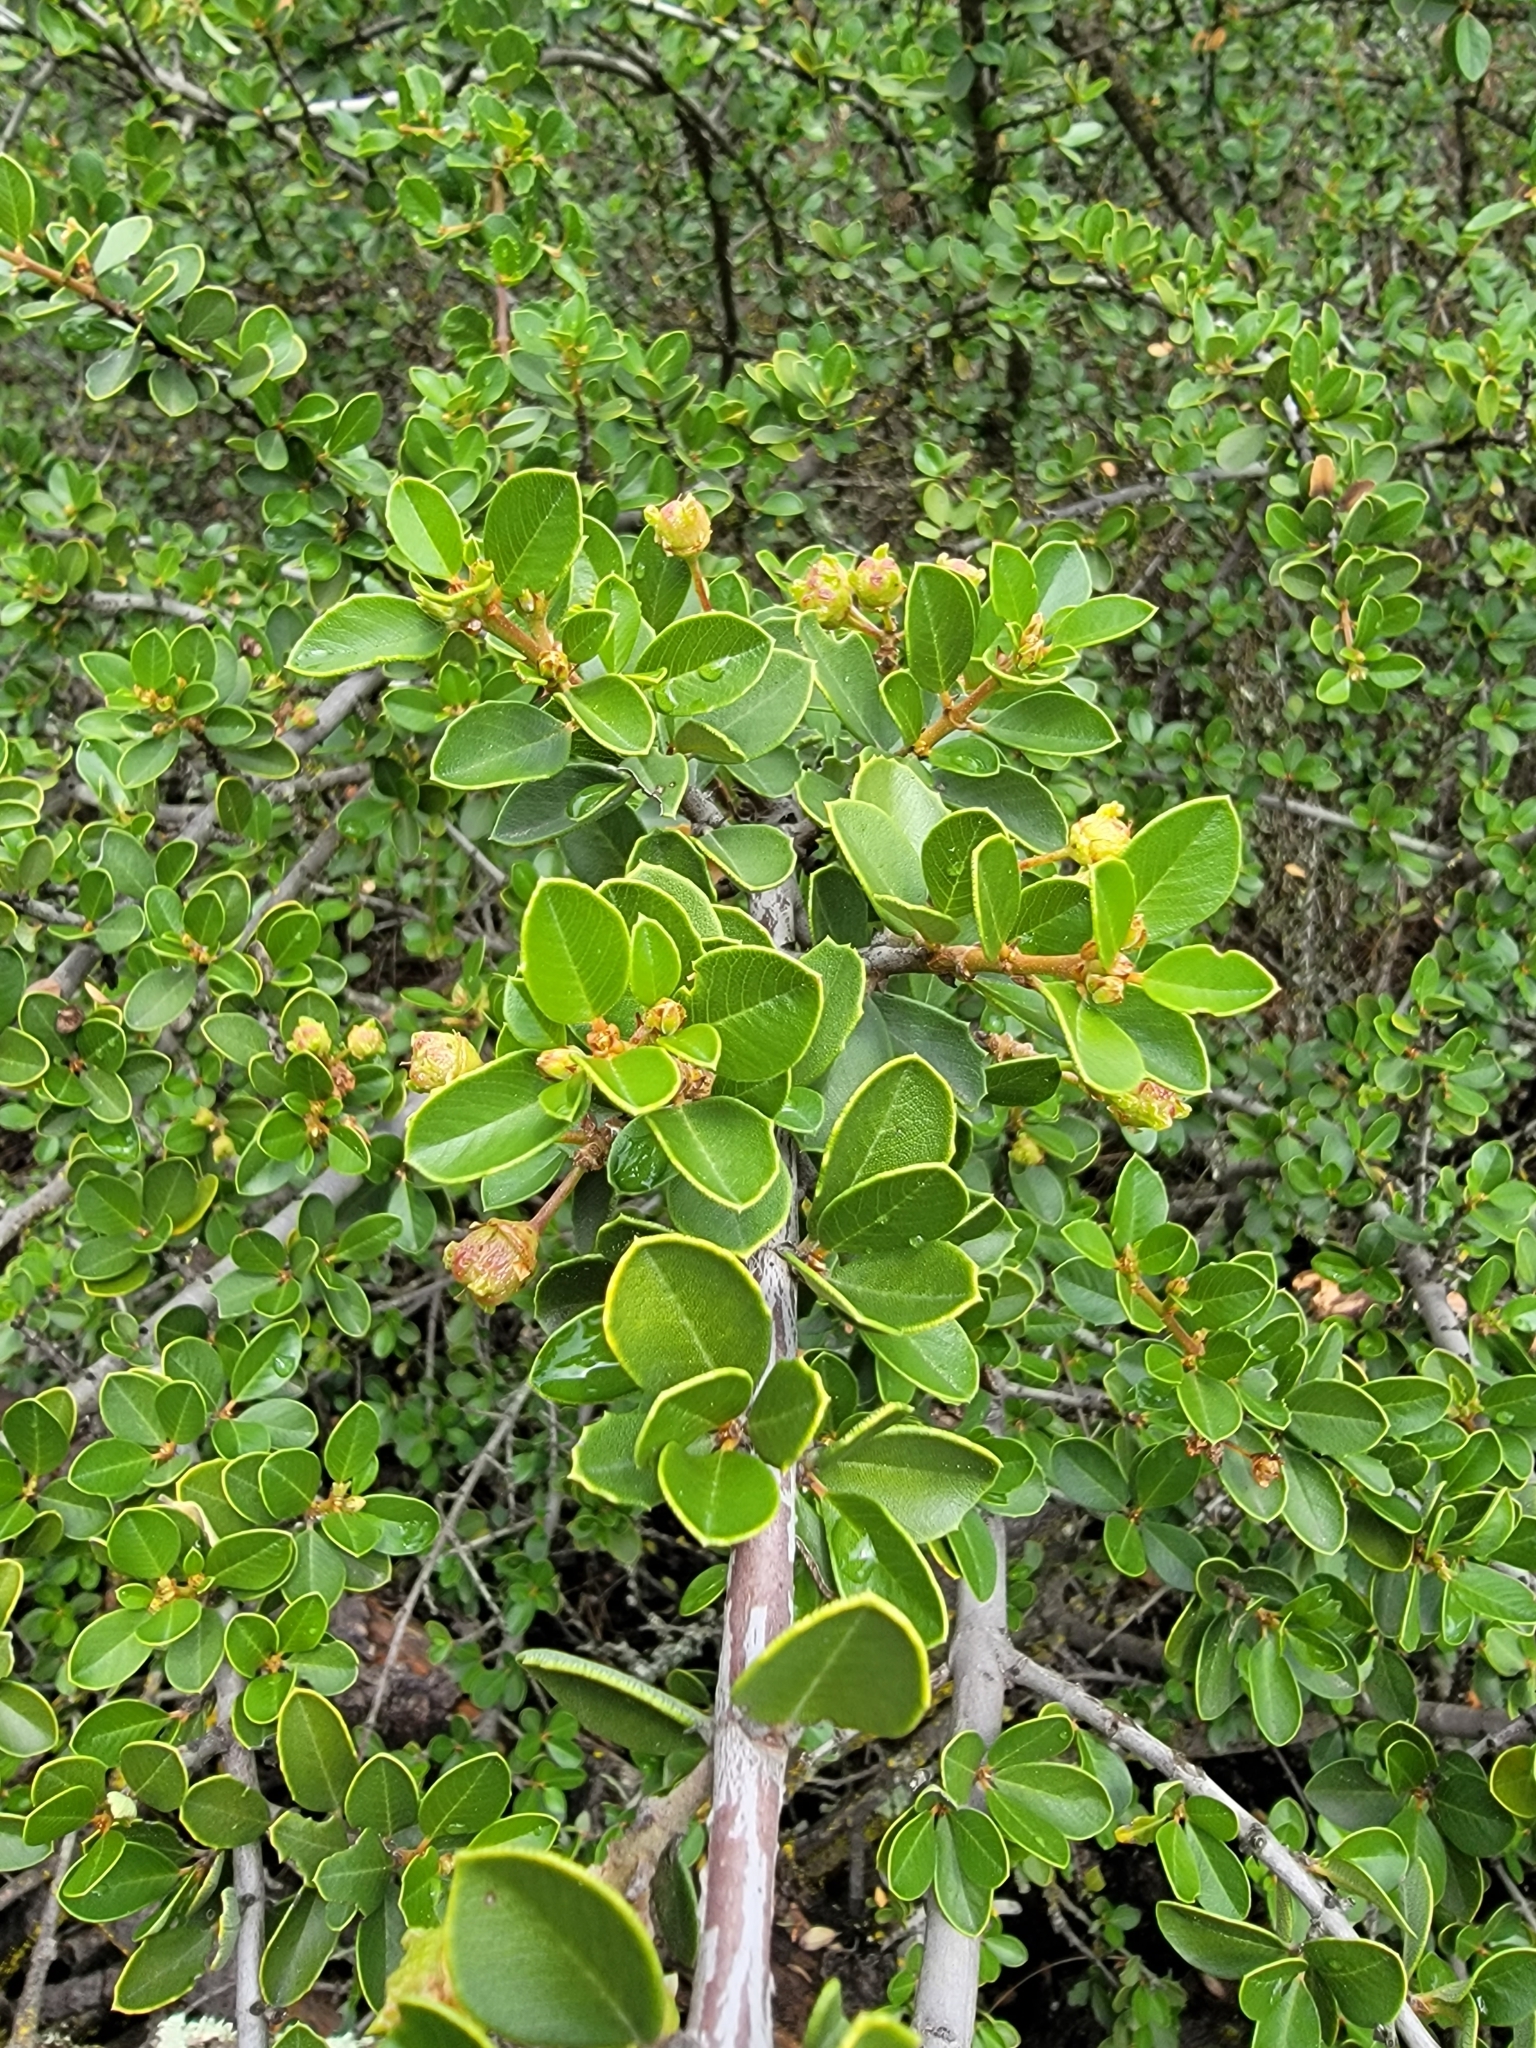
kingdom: Plantae
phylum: Tracheophyta
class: Magnoliopsida
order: Rosales
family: Rhamnaceae
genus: Ceanothus
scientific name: Ceanothus ferrisiae
